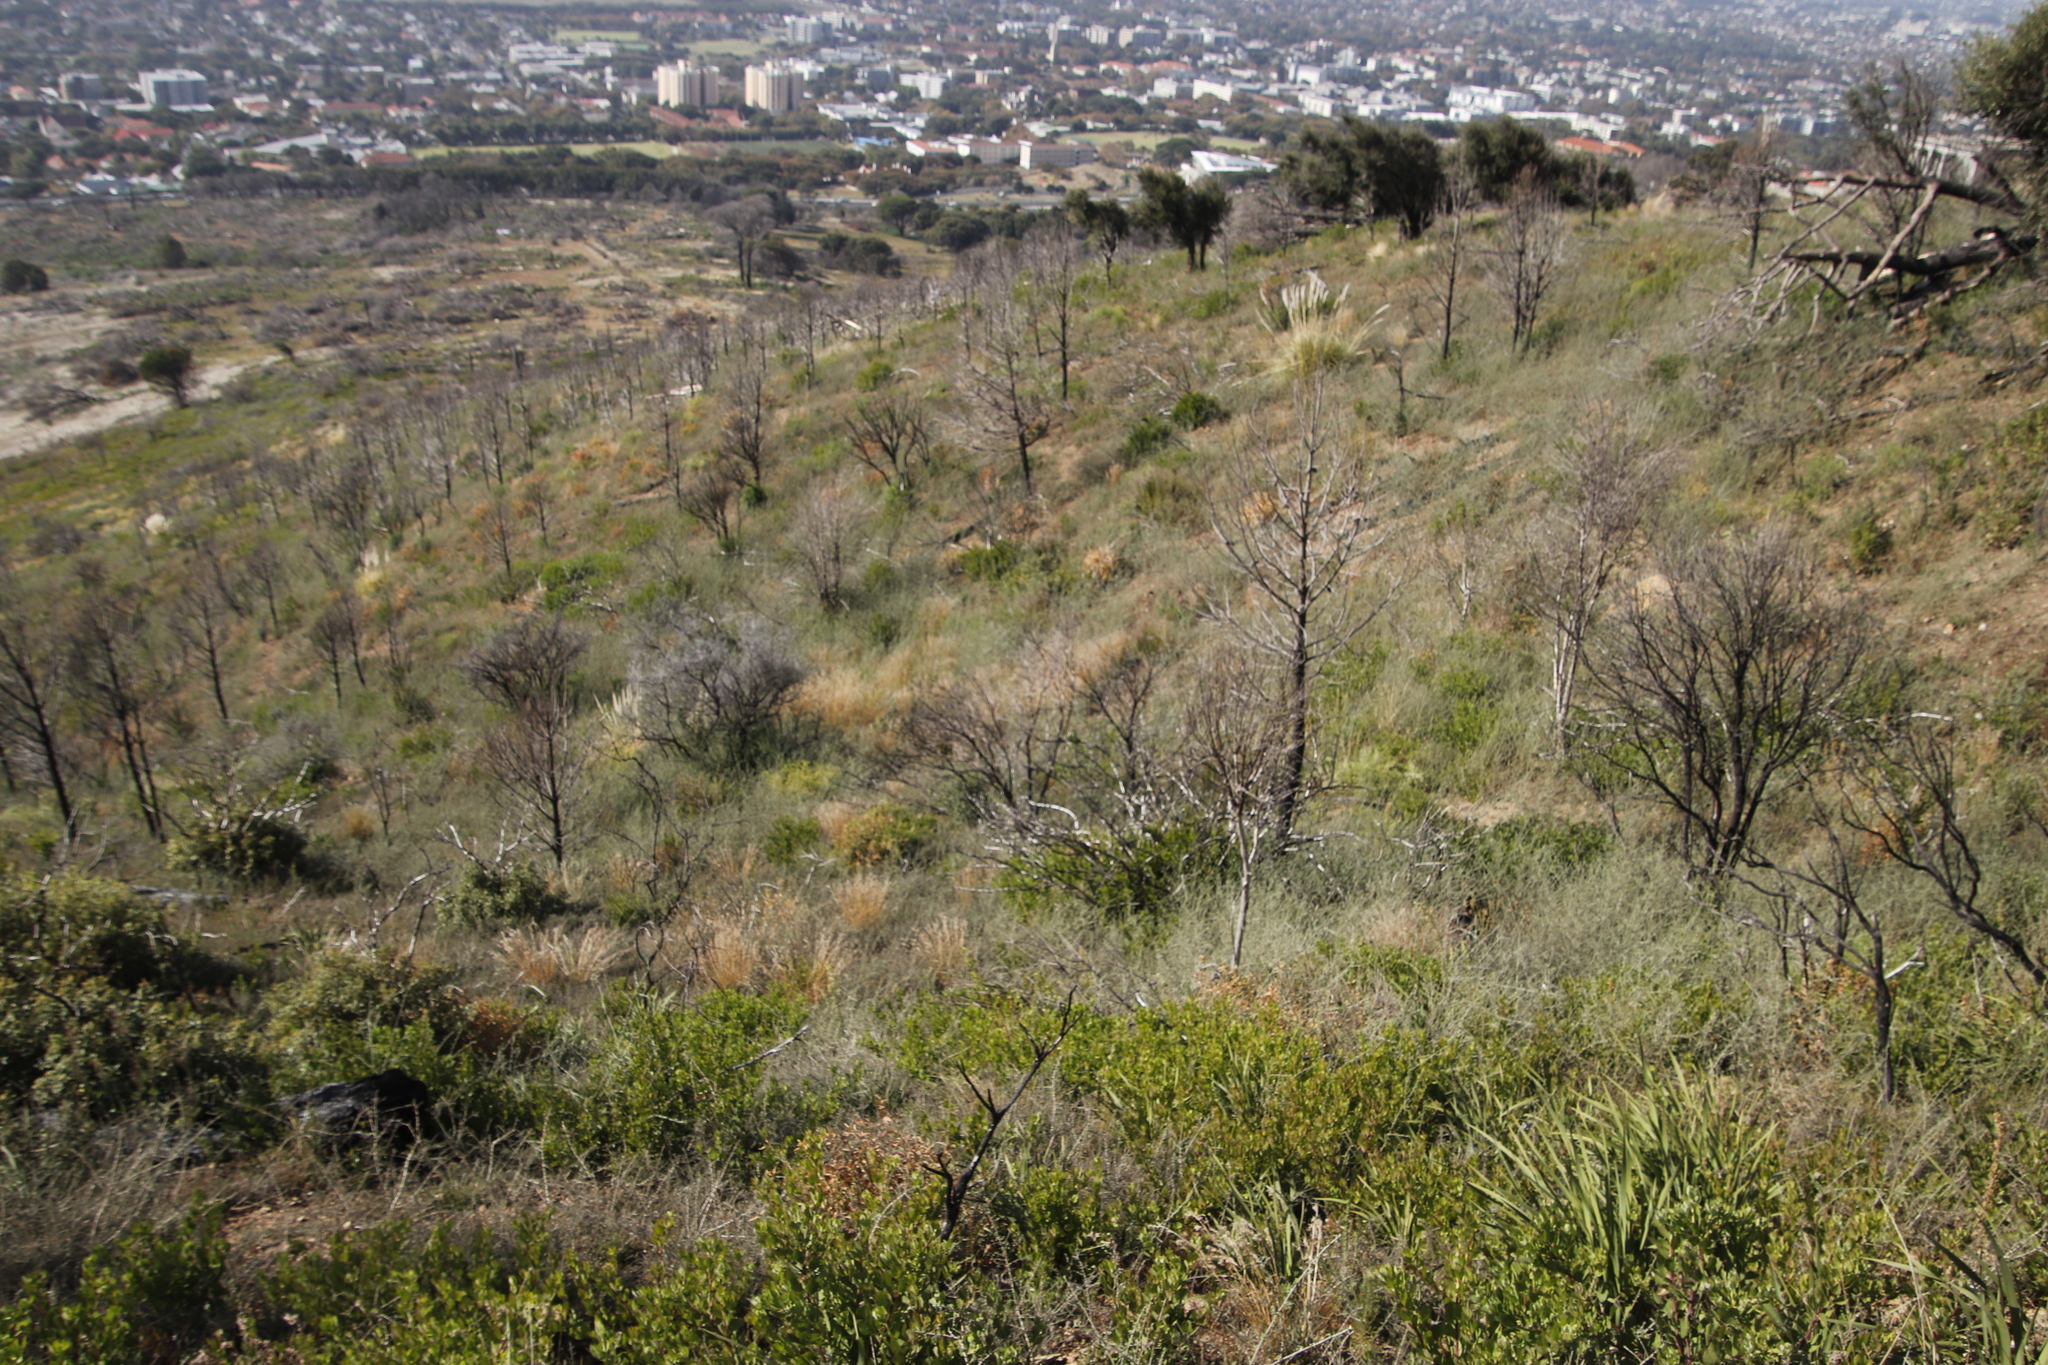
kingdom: Plantae
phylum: Tracheophyta
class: Magnoliopsida
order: Fabales
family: Fabaceae
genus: Psoralea
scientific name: Psoralea hirta
